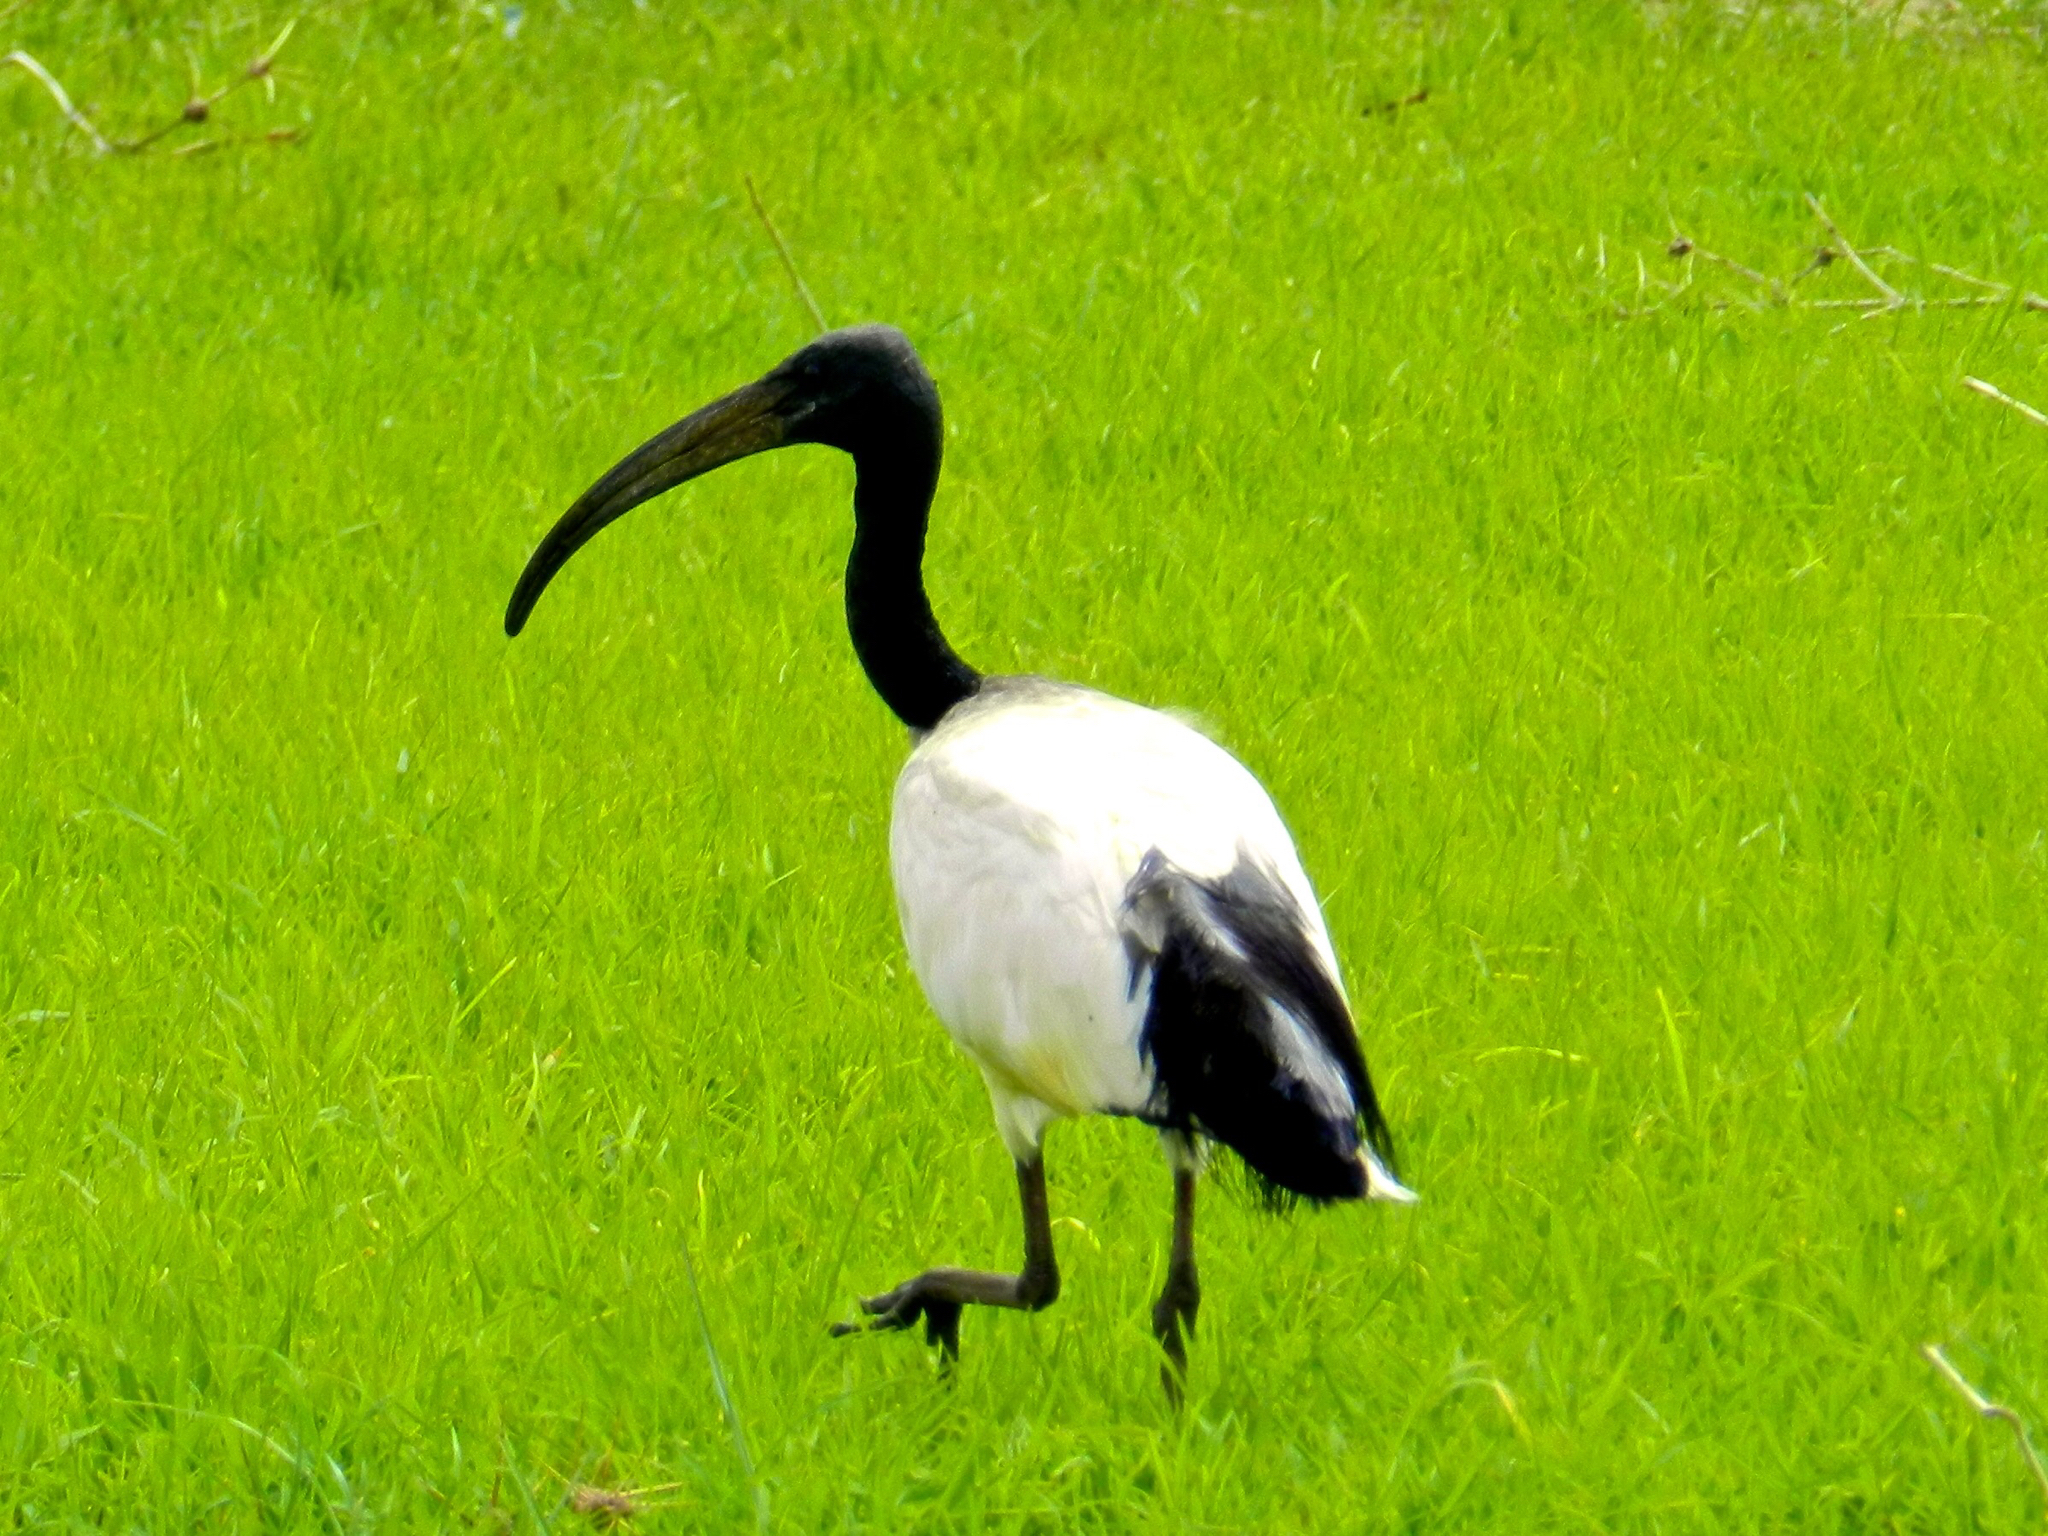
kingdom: Animalia
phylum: Chordata
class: Aves
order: Pelecaniformes
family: Threskiornithidae
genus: Threskiornis
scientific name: Threskiornis aethiopicus
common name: Sacred ibis
